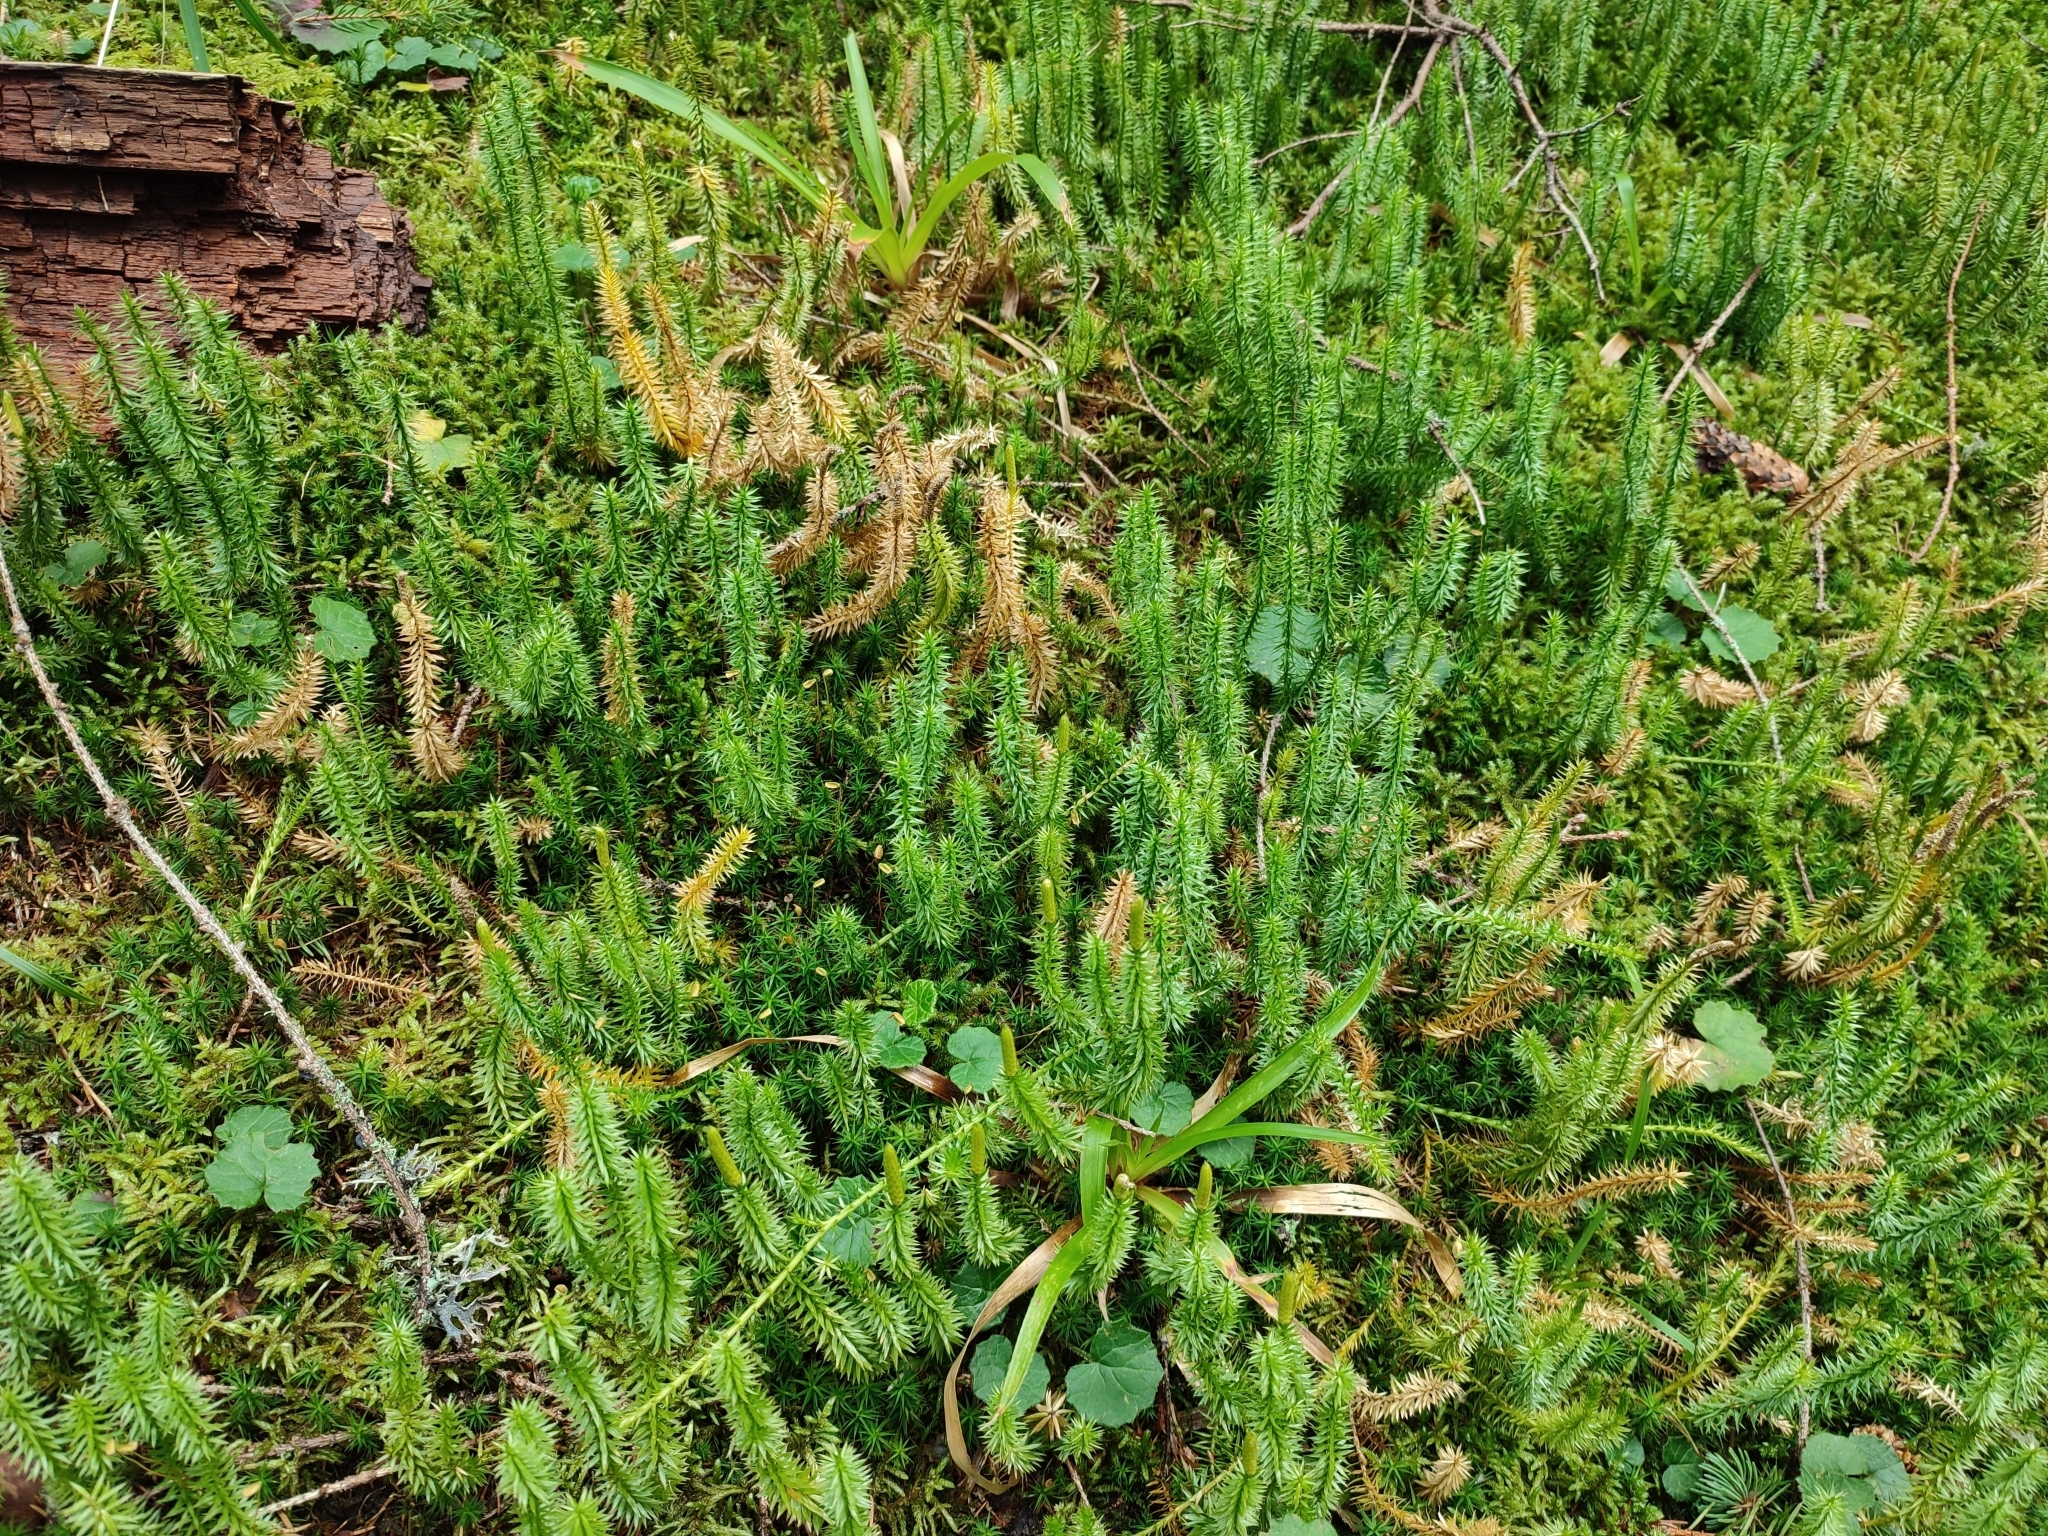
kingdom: Plantae
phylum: Tracheophyta
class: Lycopodiopsida
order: Lycopodiales
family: Lycopodiaceae
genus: Spinulum
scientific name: Spinulum annotinum
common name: Interrupted club-moss
